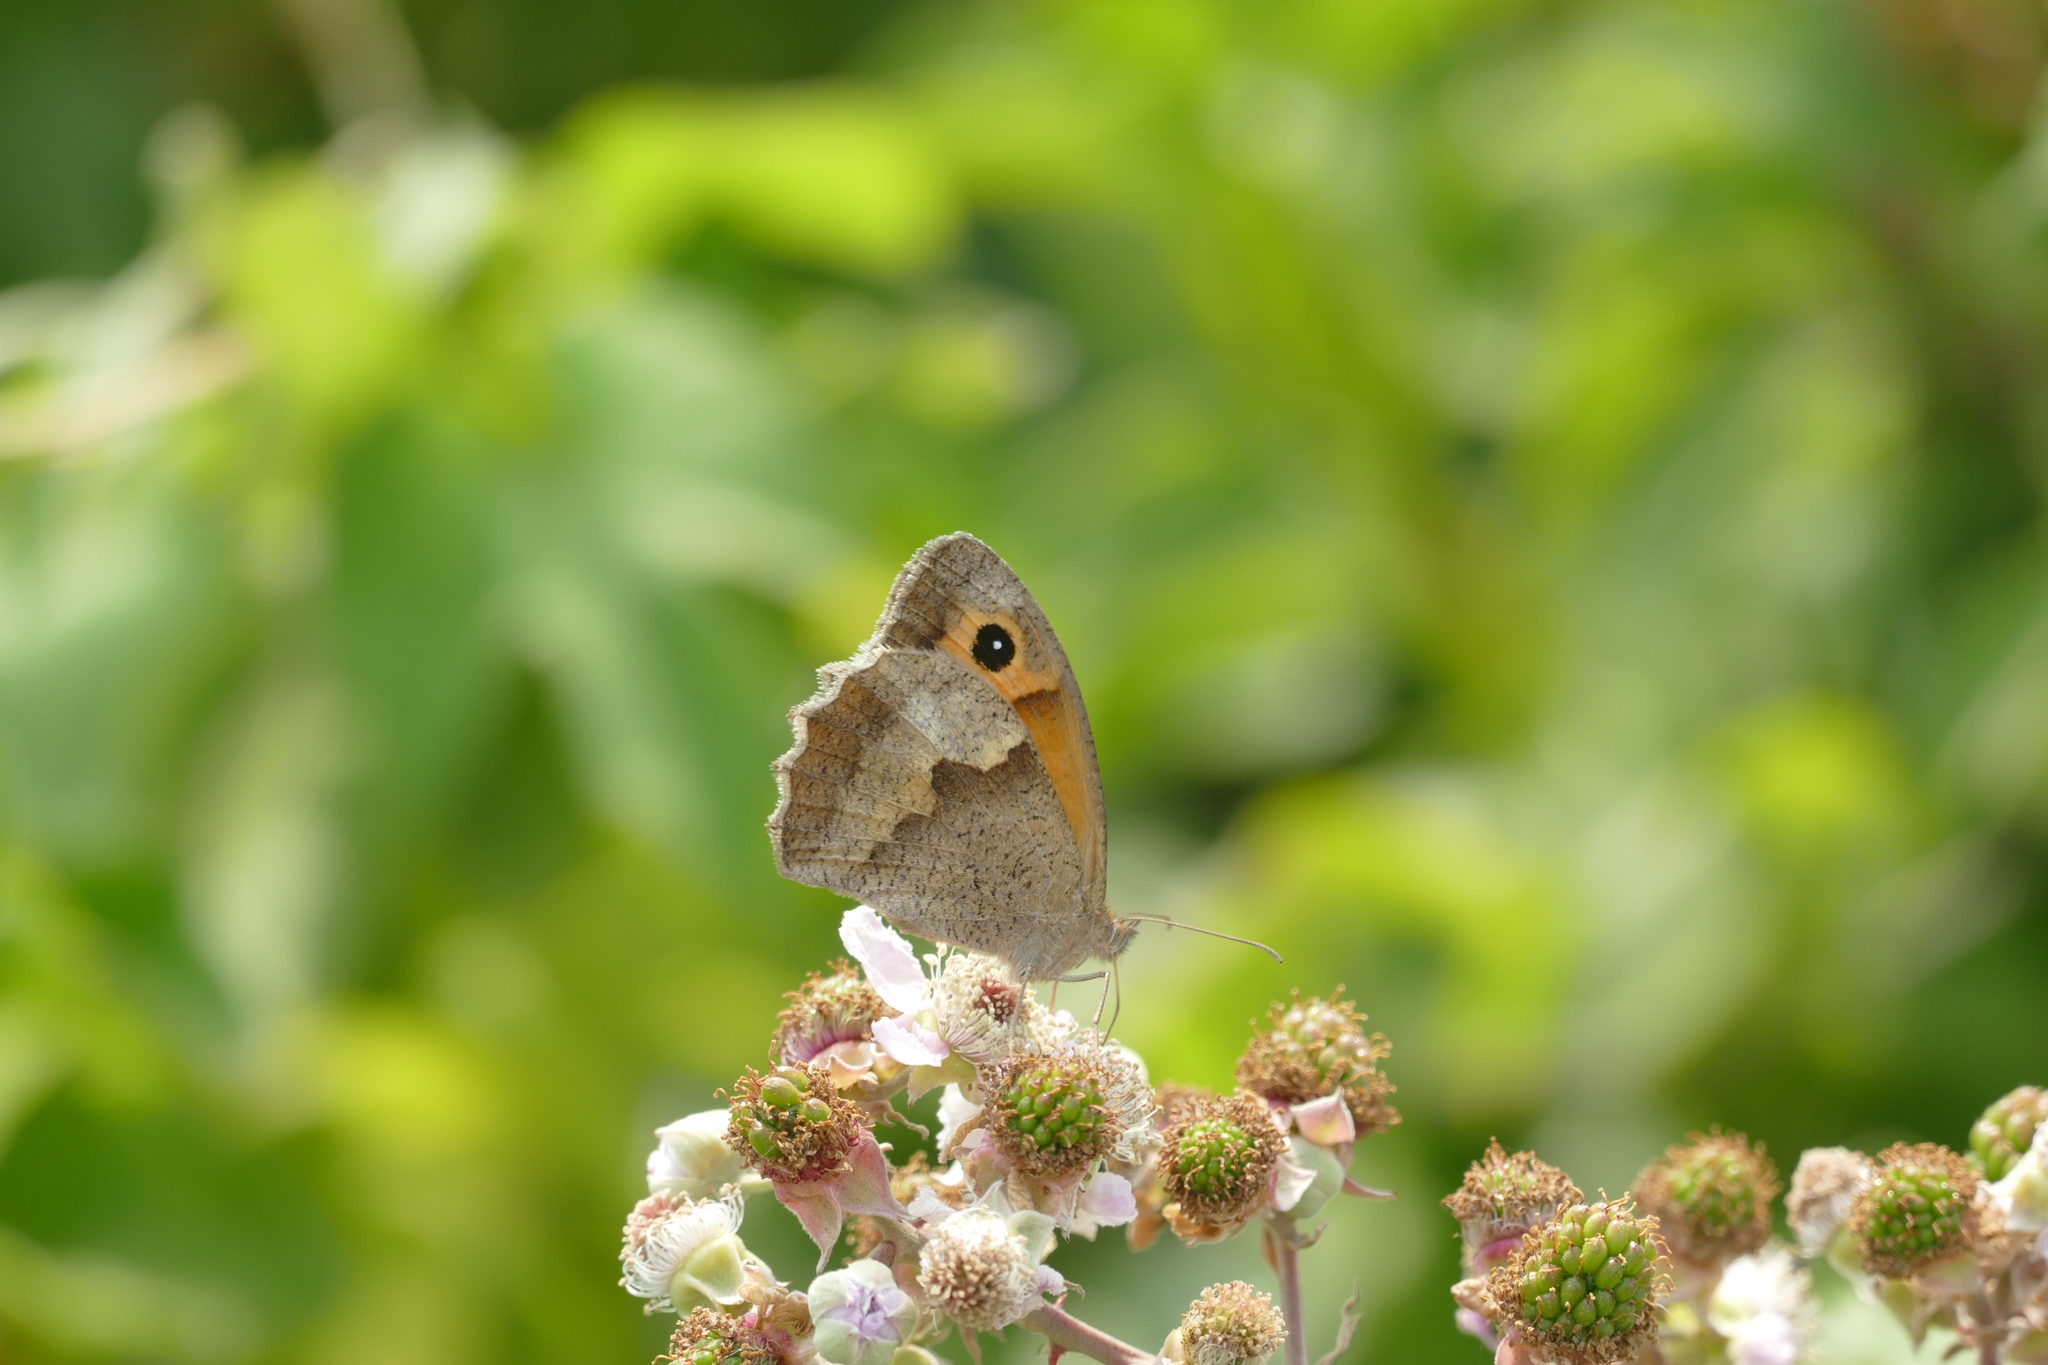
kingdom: Animalia
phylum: Arthropoda
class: Insecta
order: Lepidoptera
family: Nymphalidae
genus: Maniola
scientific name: Maniola jurtina
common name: Meadow brown
